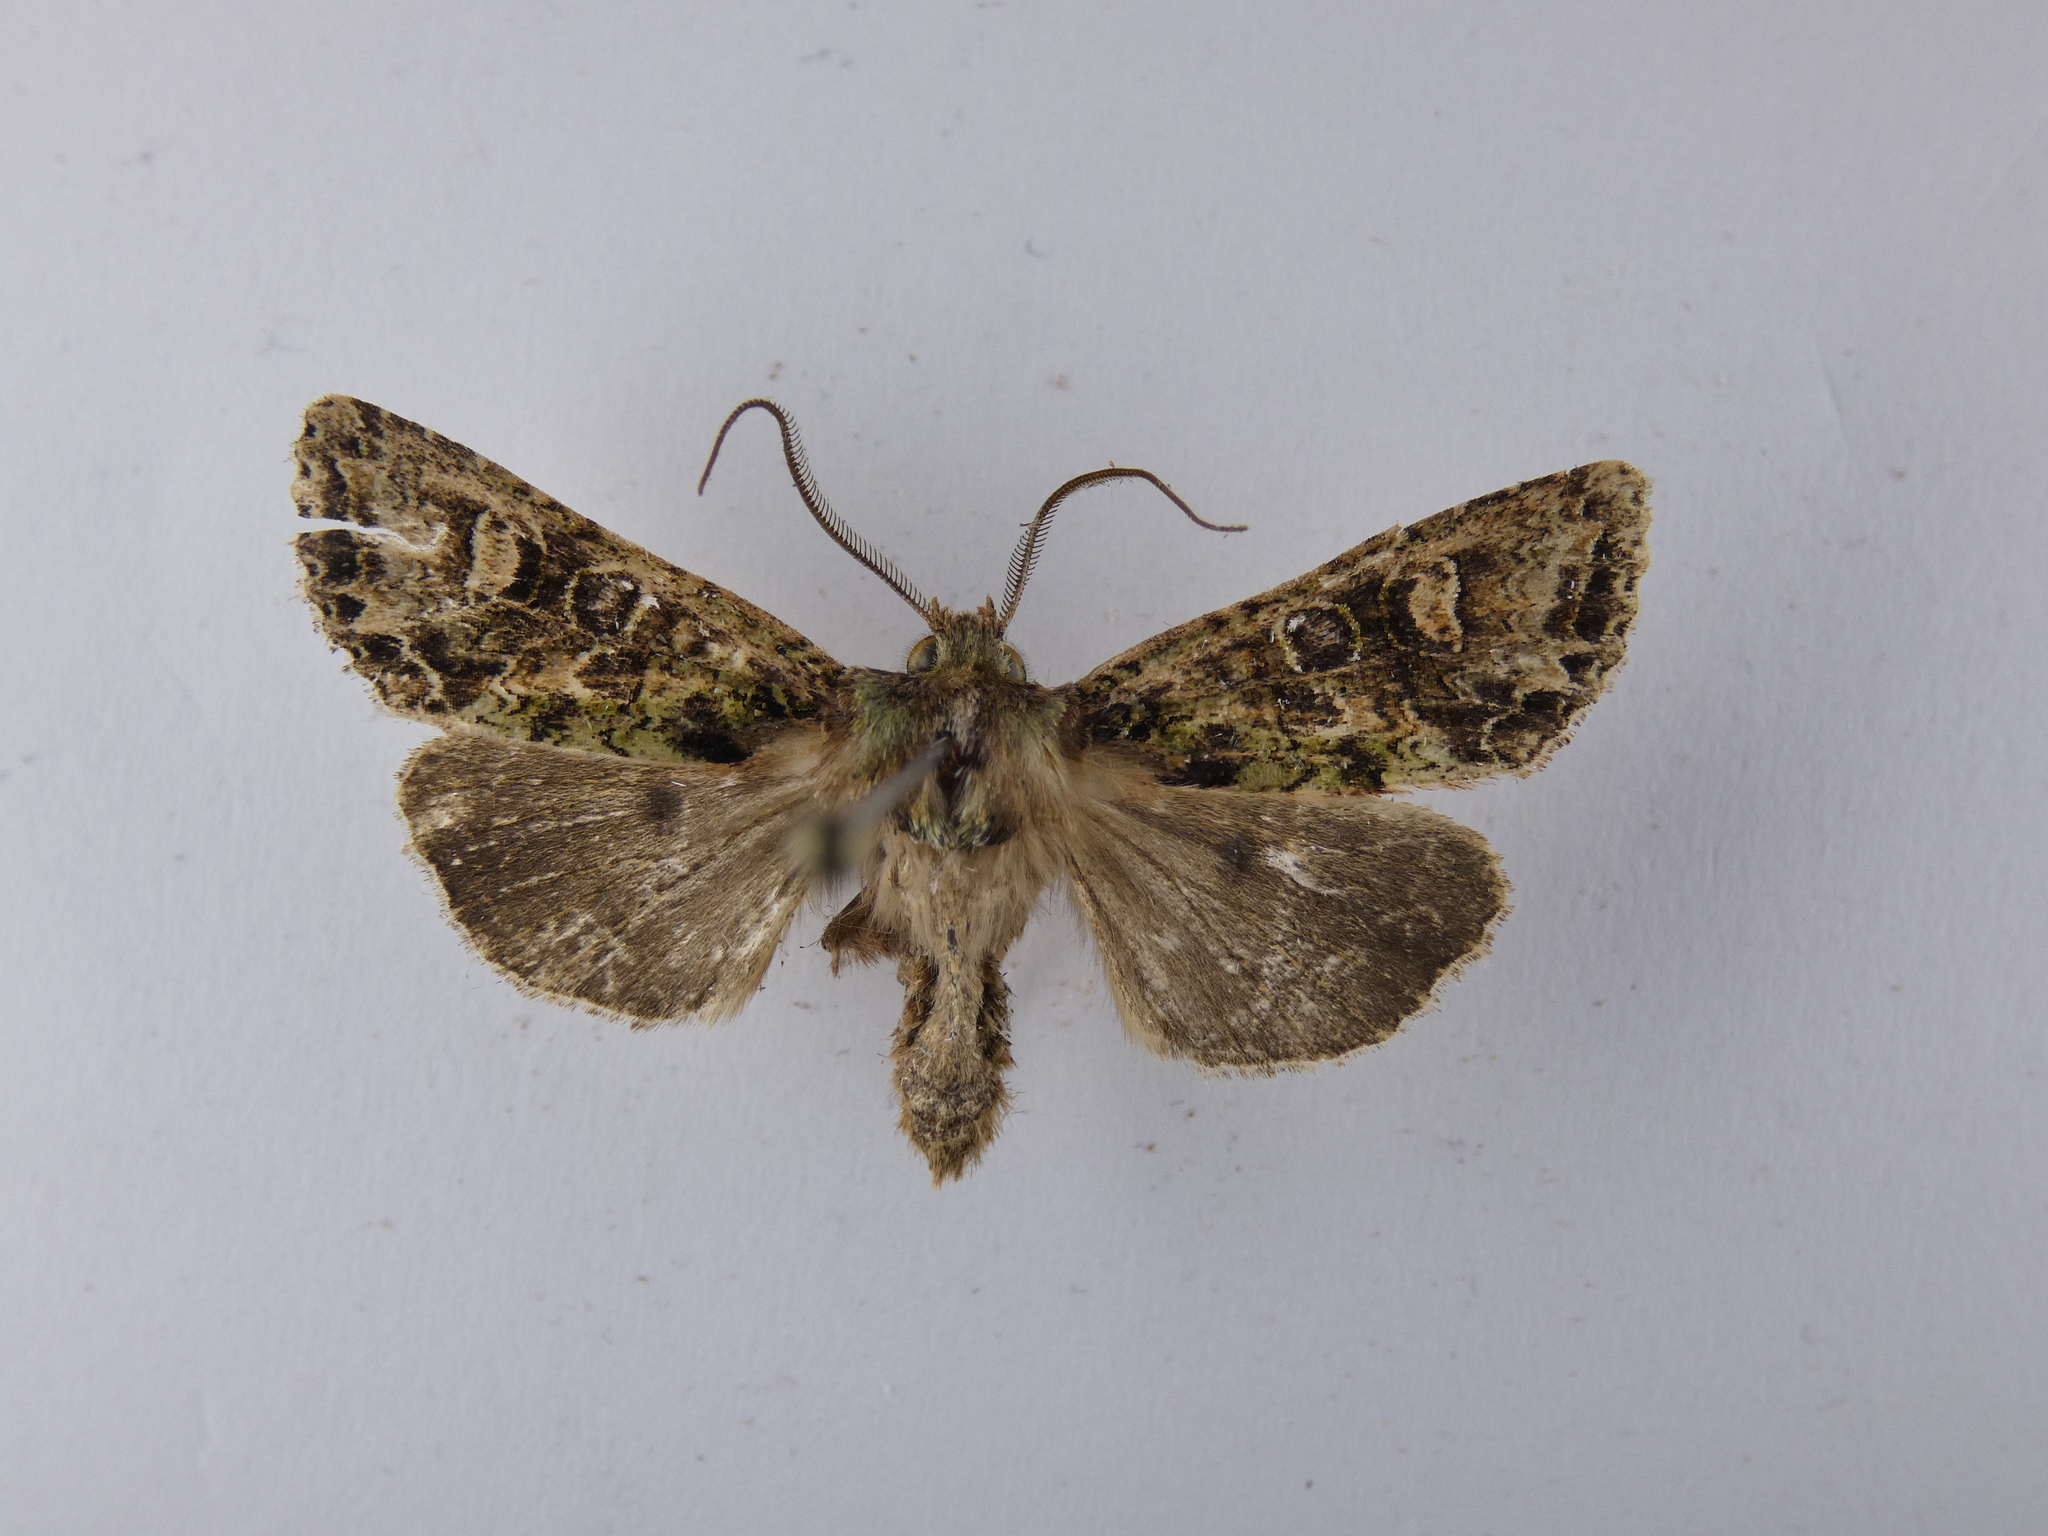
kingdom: Animalia
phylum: Arthropoda
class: Insecta
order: Lepidoptera
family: Noctuidae
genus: Ichneutica
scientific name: Ichneutica
